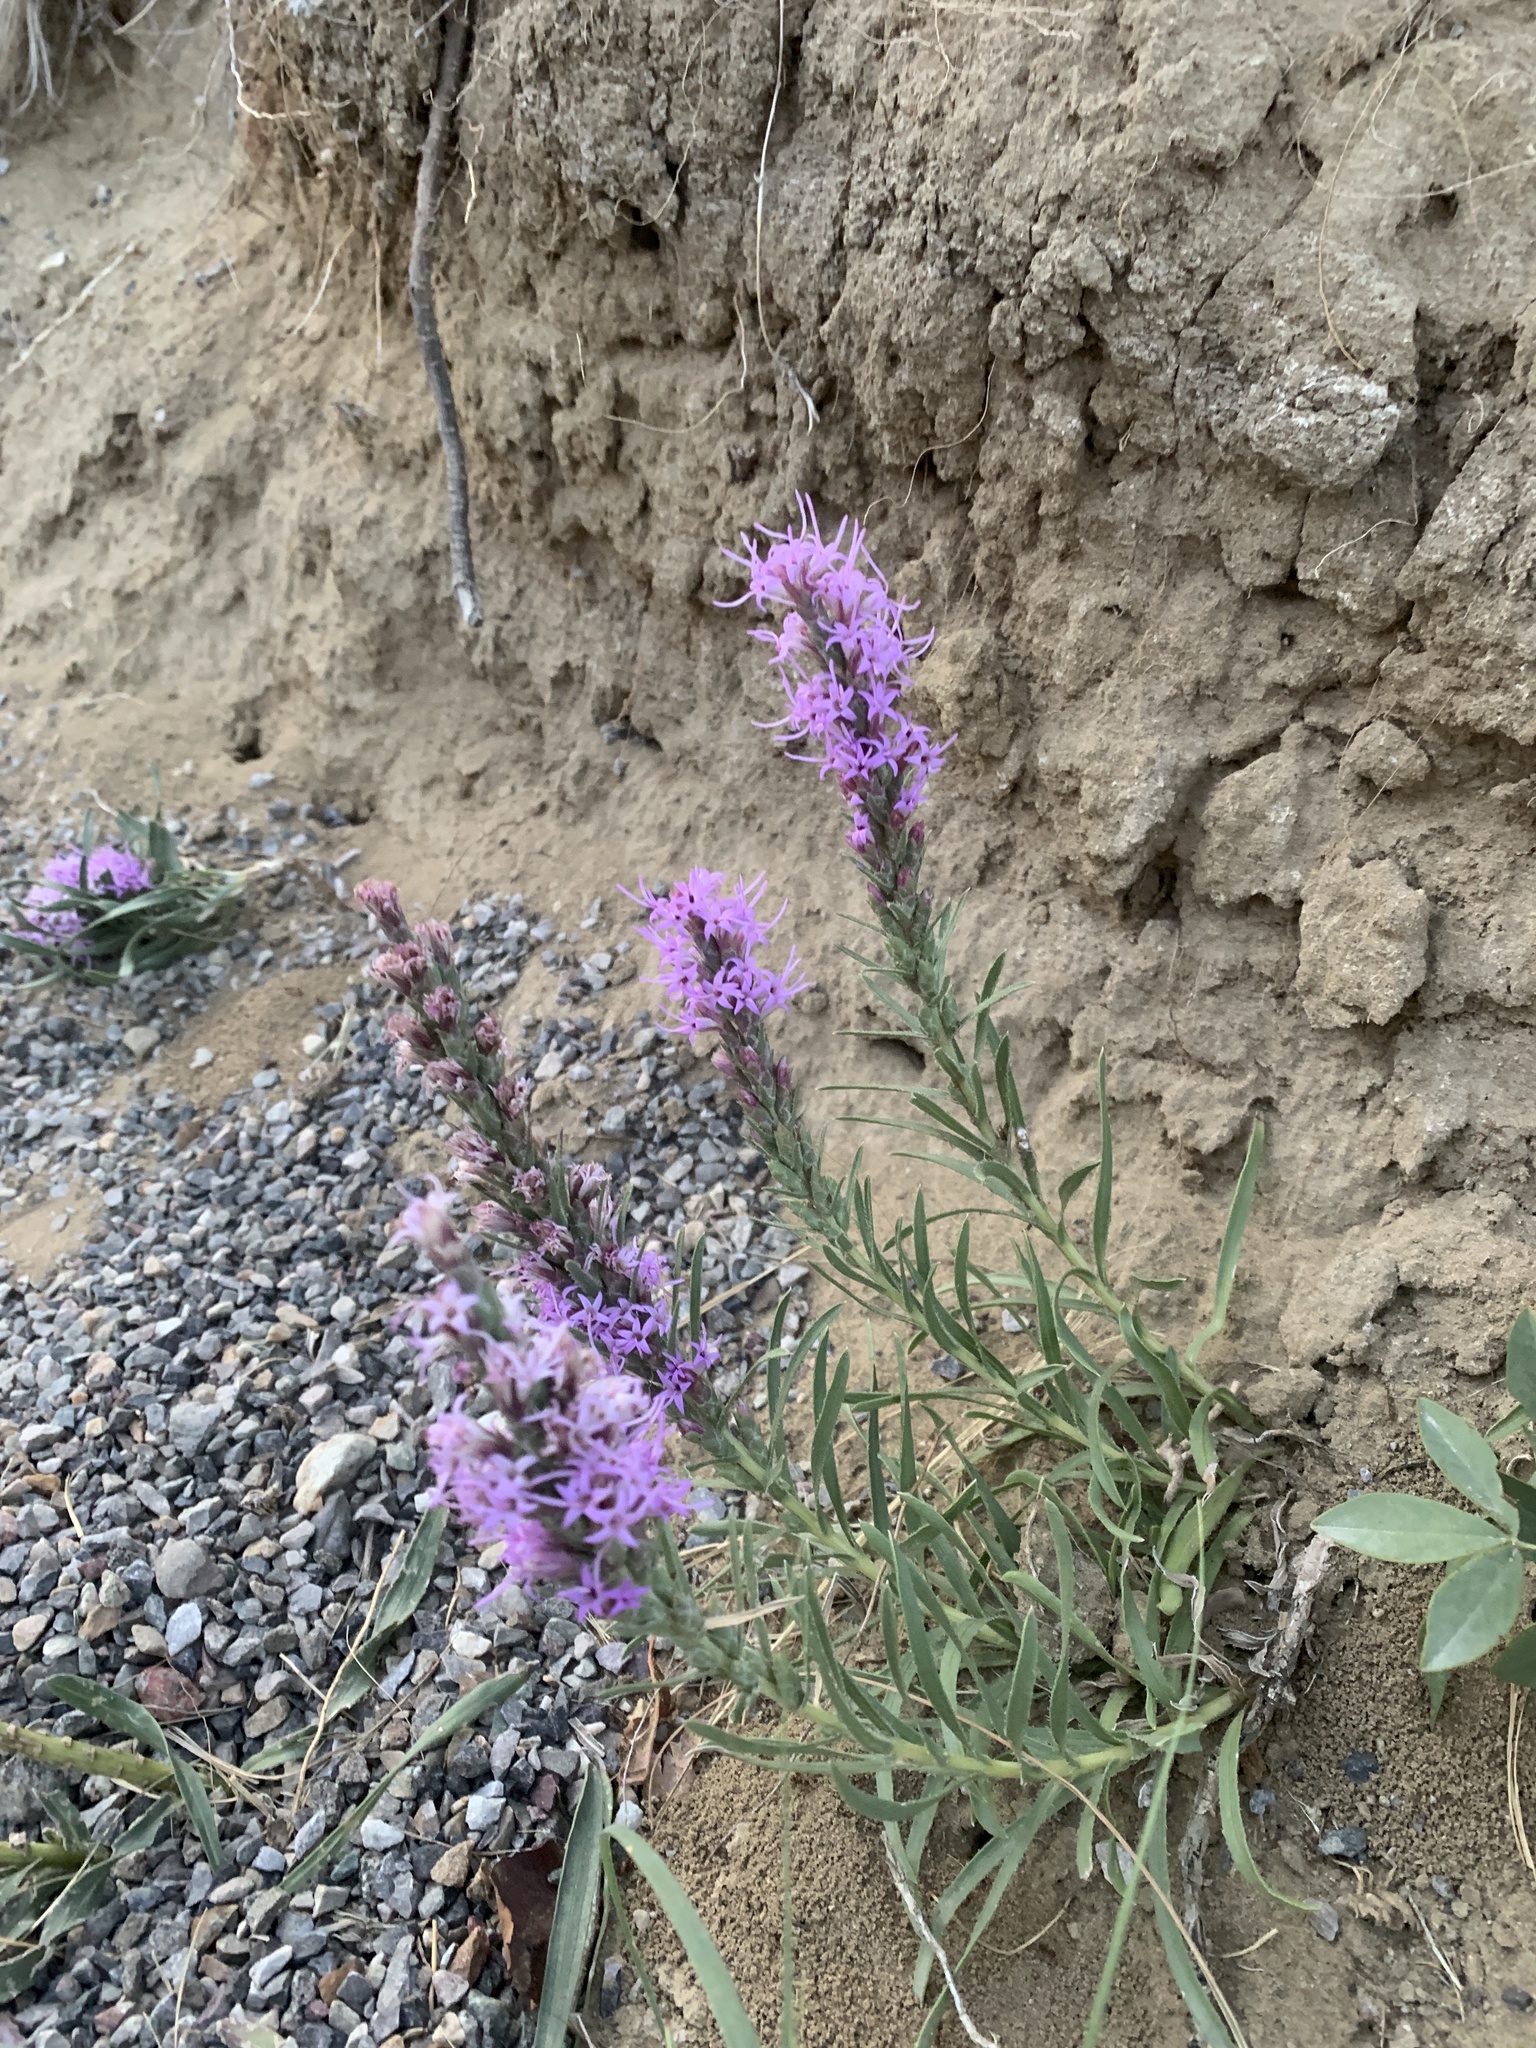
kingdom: Plantae
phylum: Tracheophyta
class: Magnoliopsida
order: Asterales
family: Asteraceae
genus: Liatris
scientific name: Liatris punctata
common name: Dotted gayfeather
